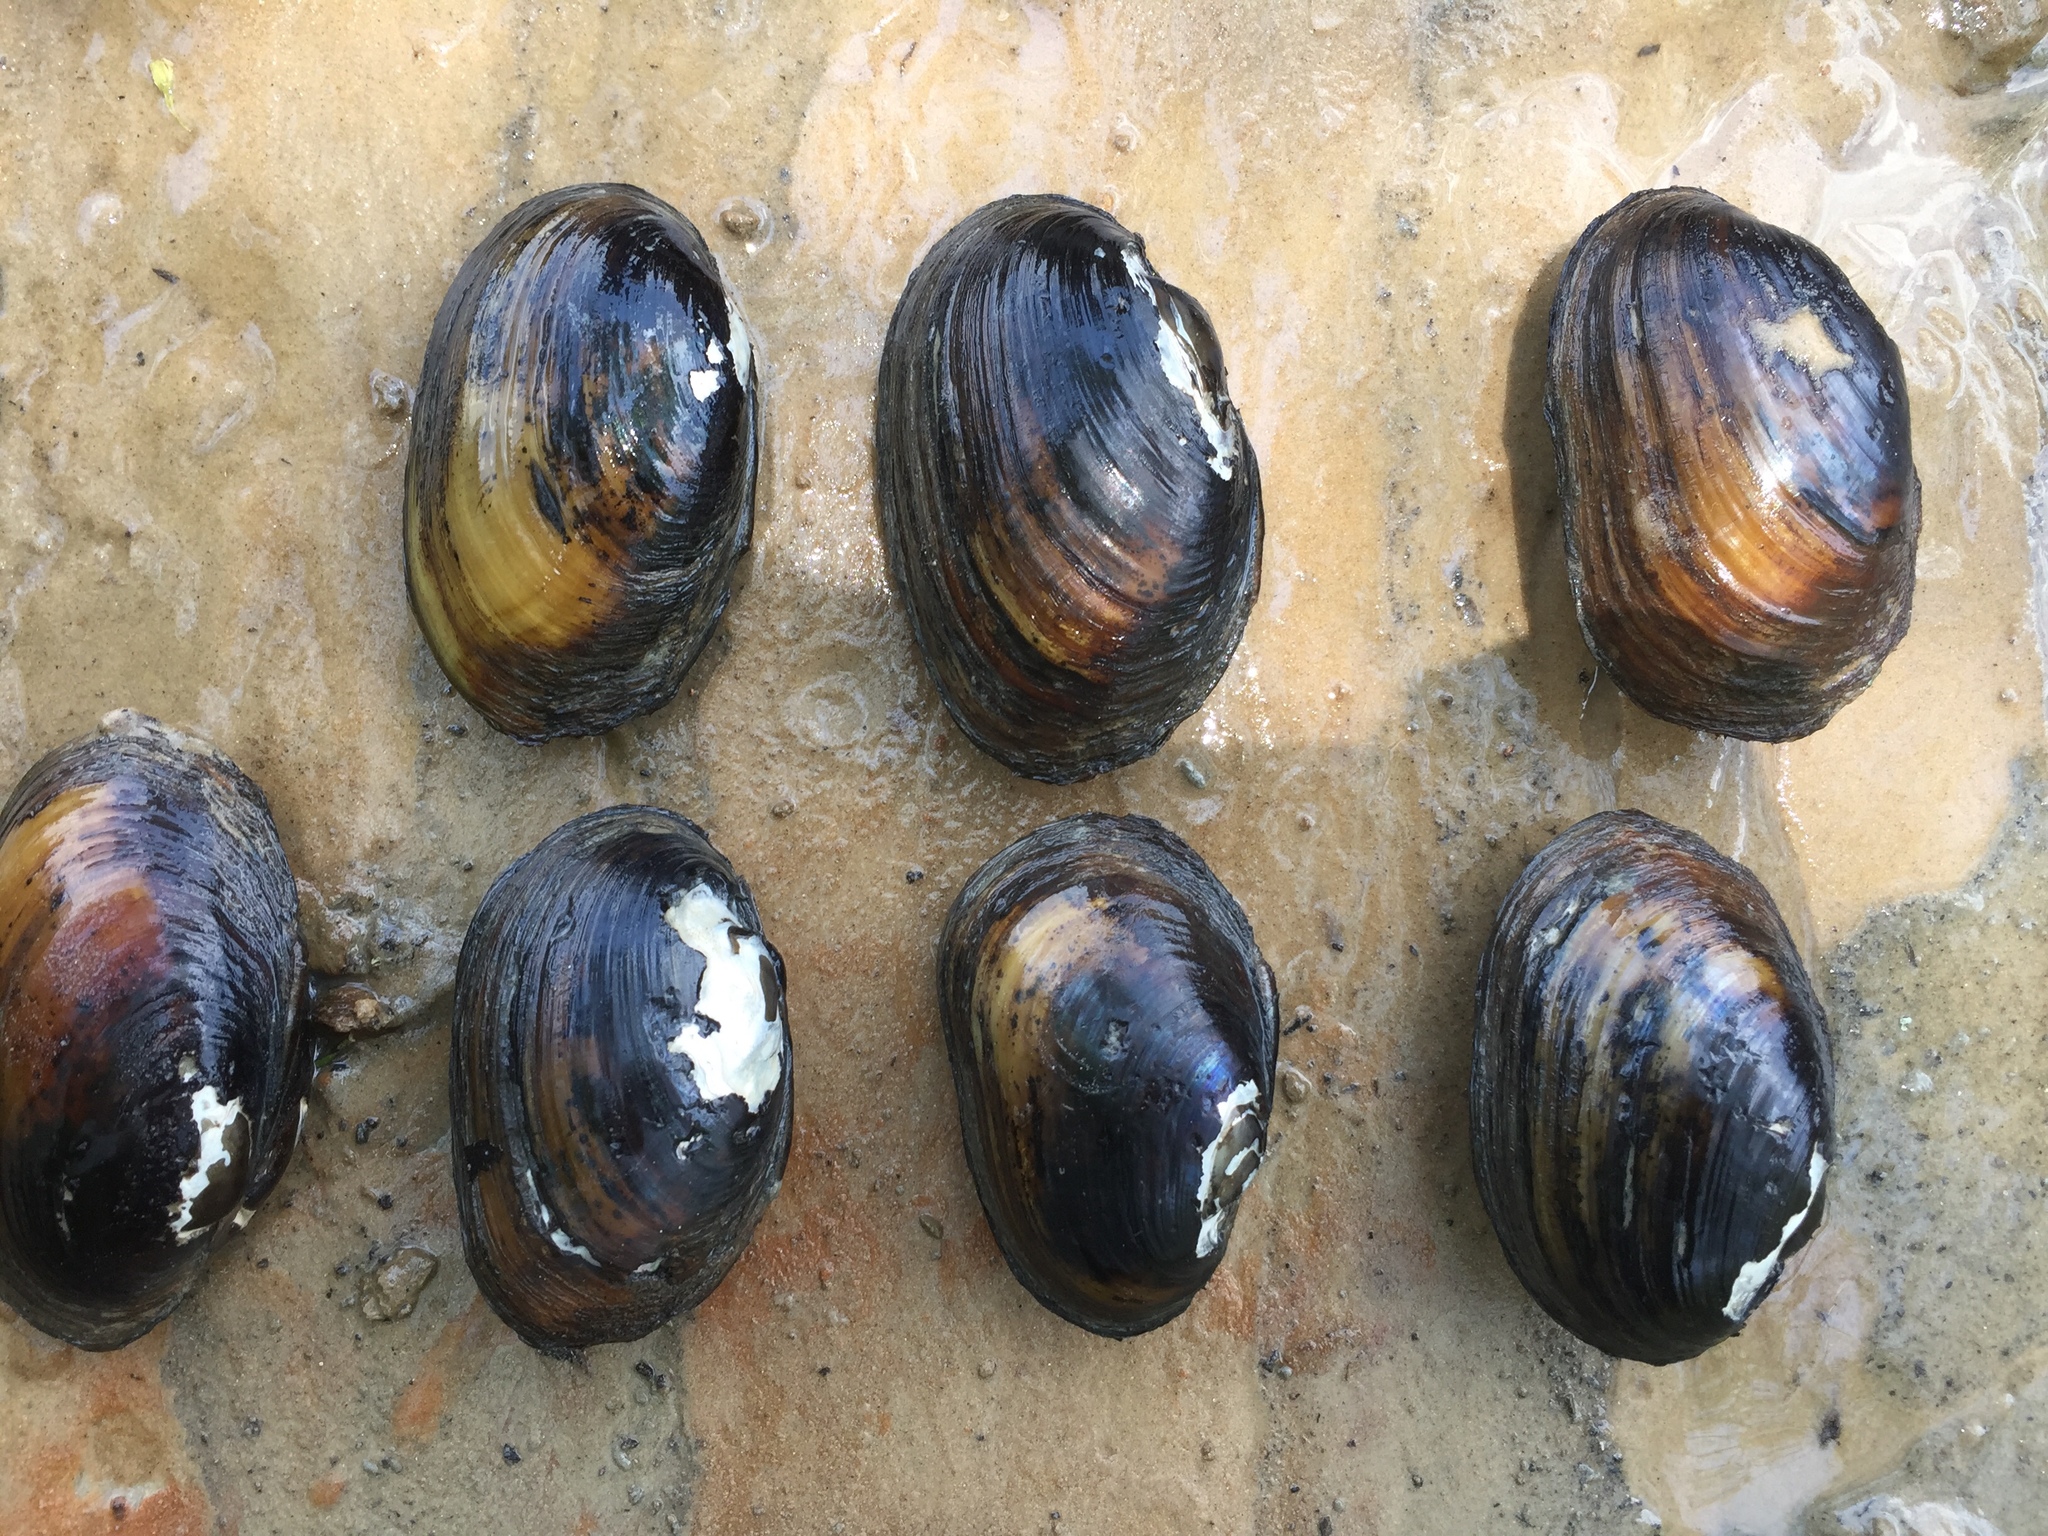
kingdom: Animalia
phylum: Mollusca
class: Bivalvia
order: Unionida
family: Unionidae
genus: Lampsilis
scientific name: Lampsilis straminea
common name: Rough fatmucket
